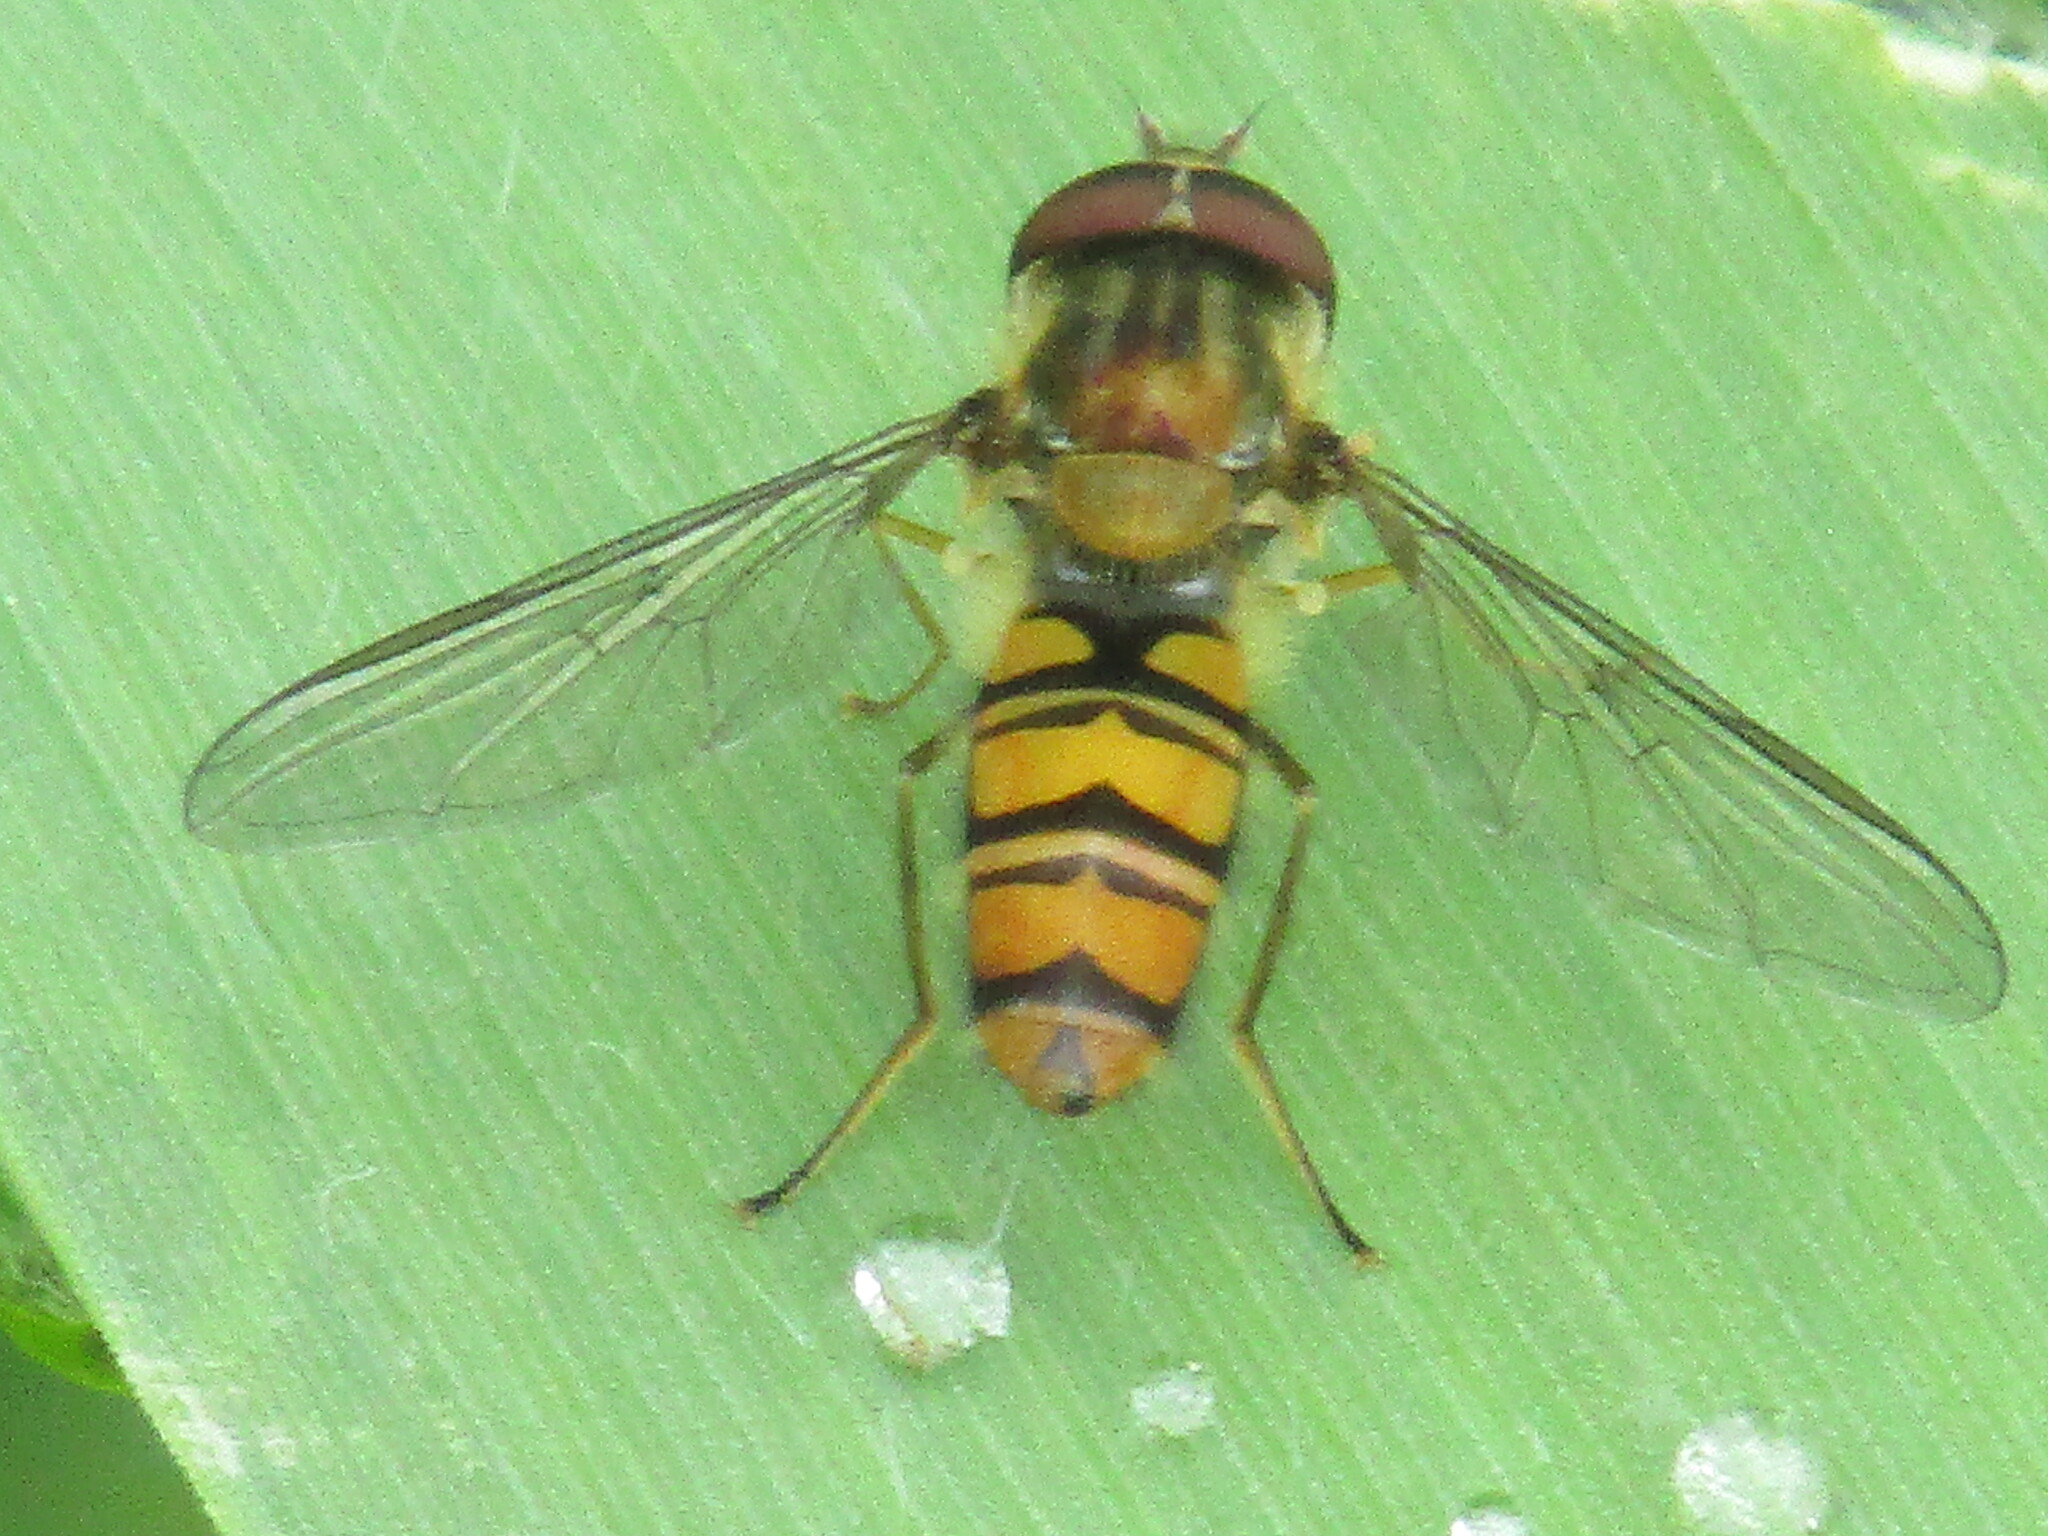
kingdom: Animalia
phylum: Arthropoda
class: Insecta
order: Diptera
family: Syrphidae
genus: Episyrphus
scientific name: Episyrphus balteatus
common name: Marmalade hoverfly
